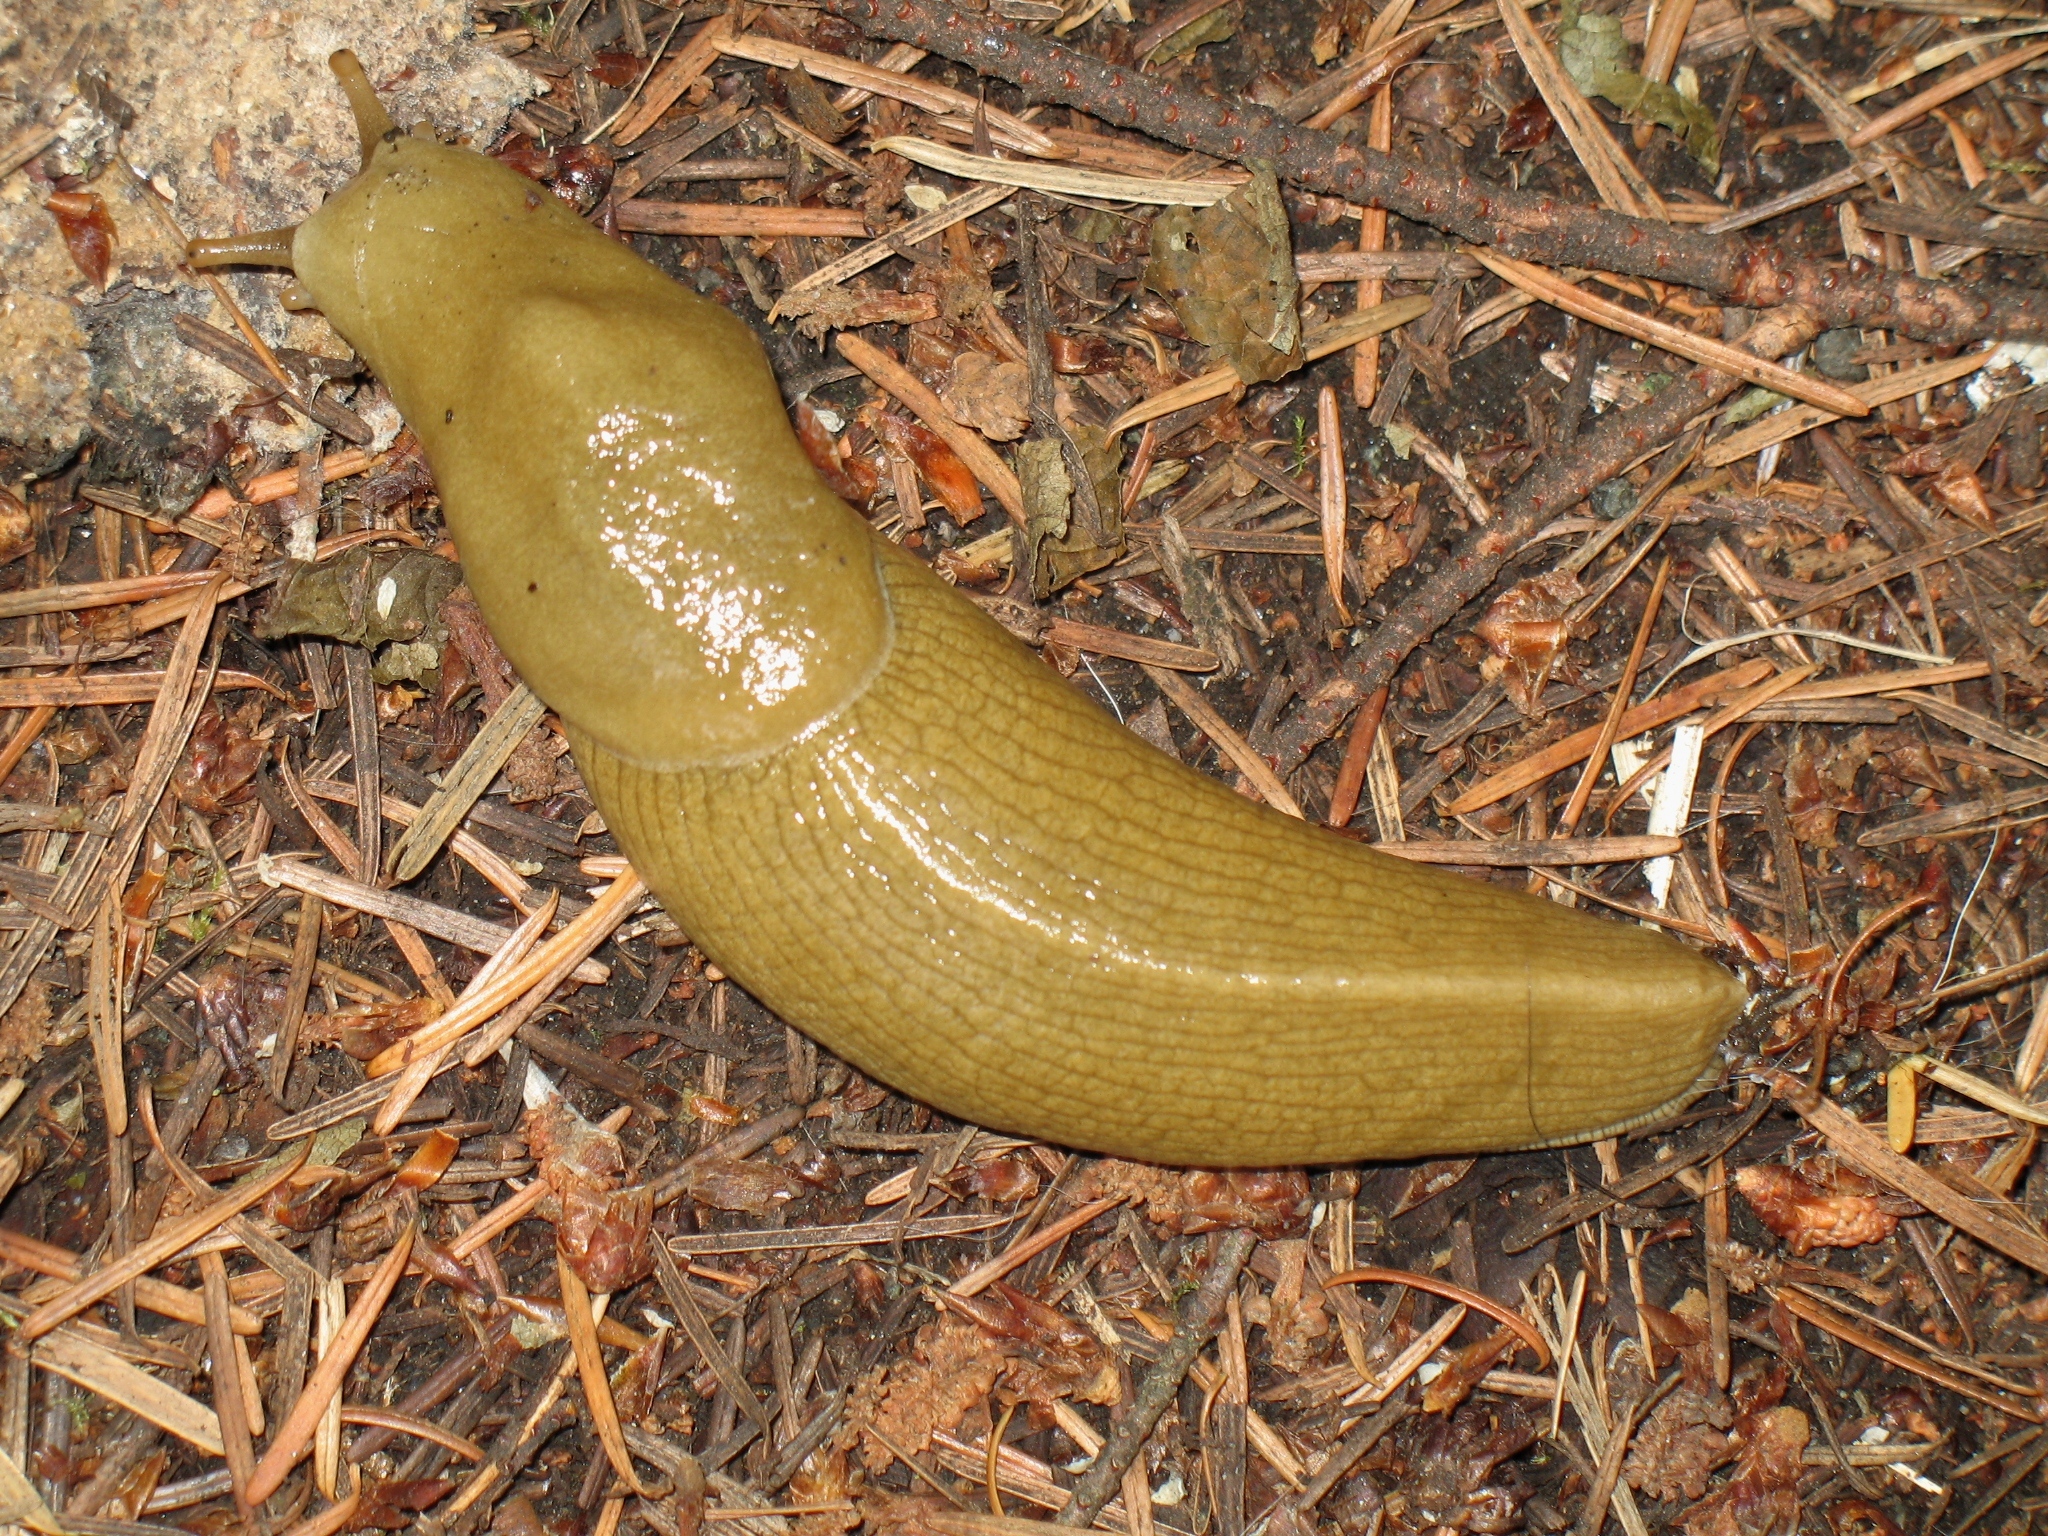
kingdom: Animalia
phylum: Mollusca
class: Gastropoda
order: Stylommatophora
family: Ariolimacidae
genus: Ariolimax
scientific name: Ariolimax columbianus
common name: Pacific banana slug
